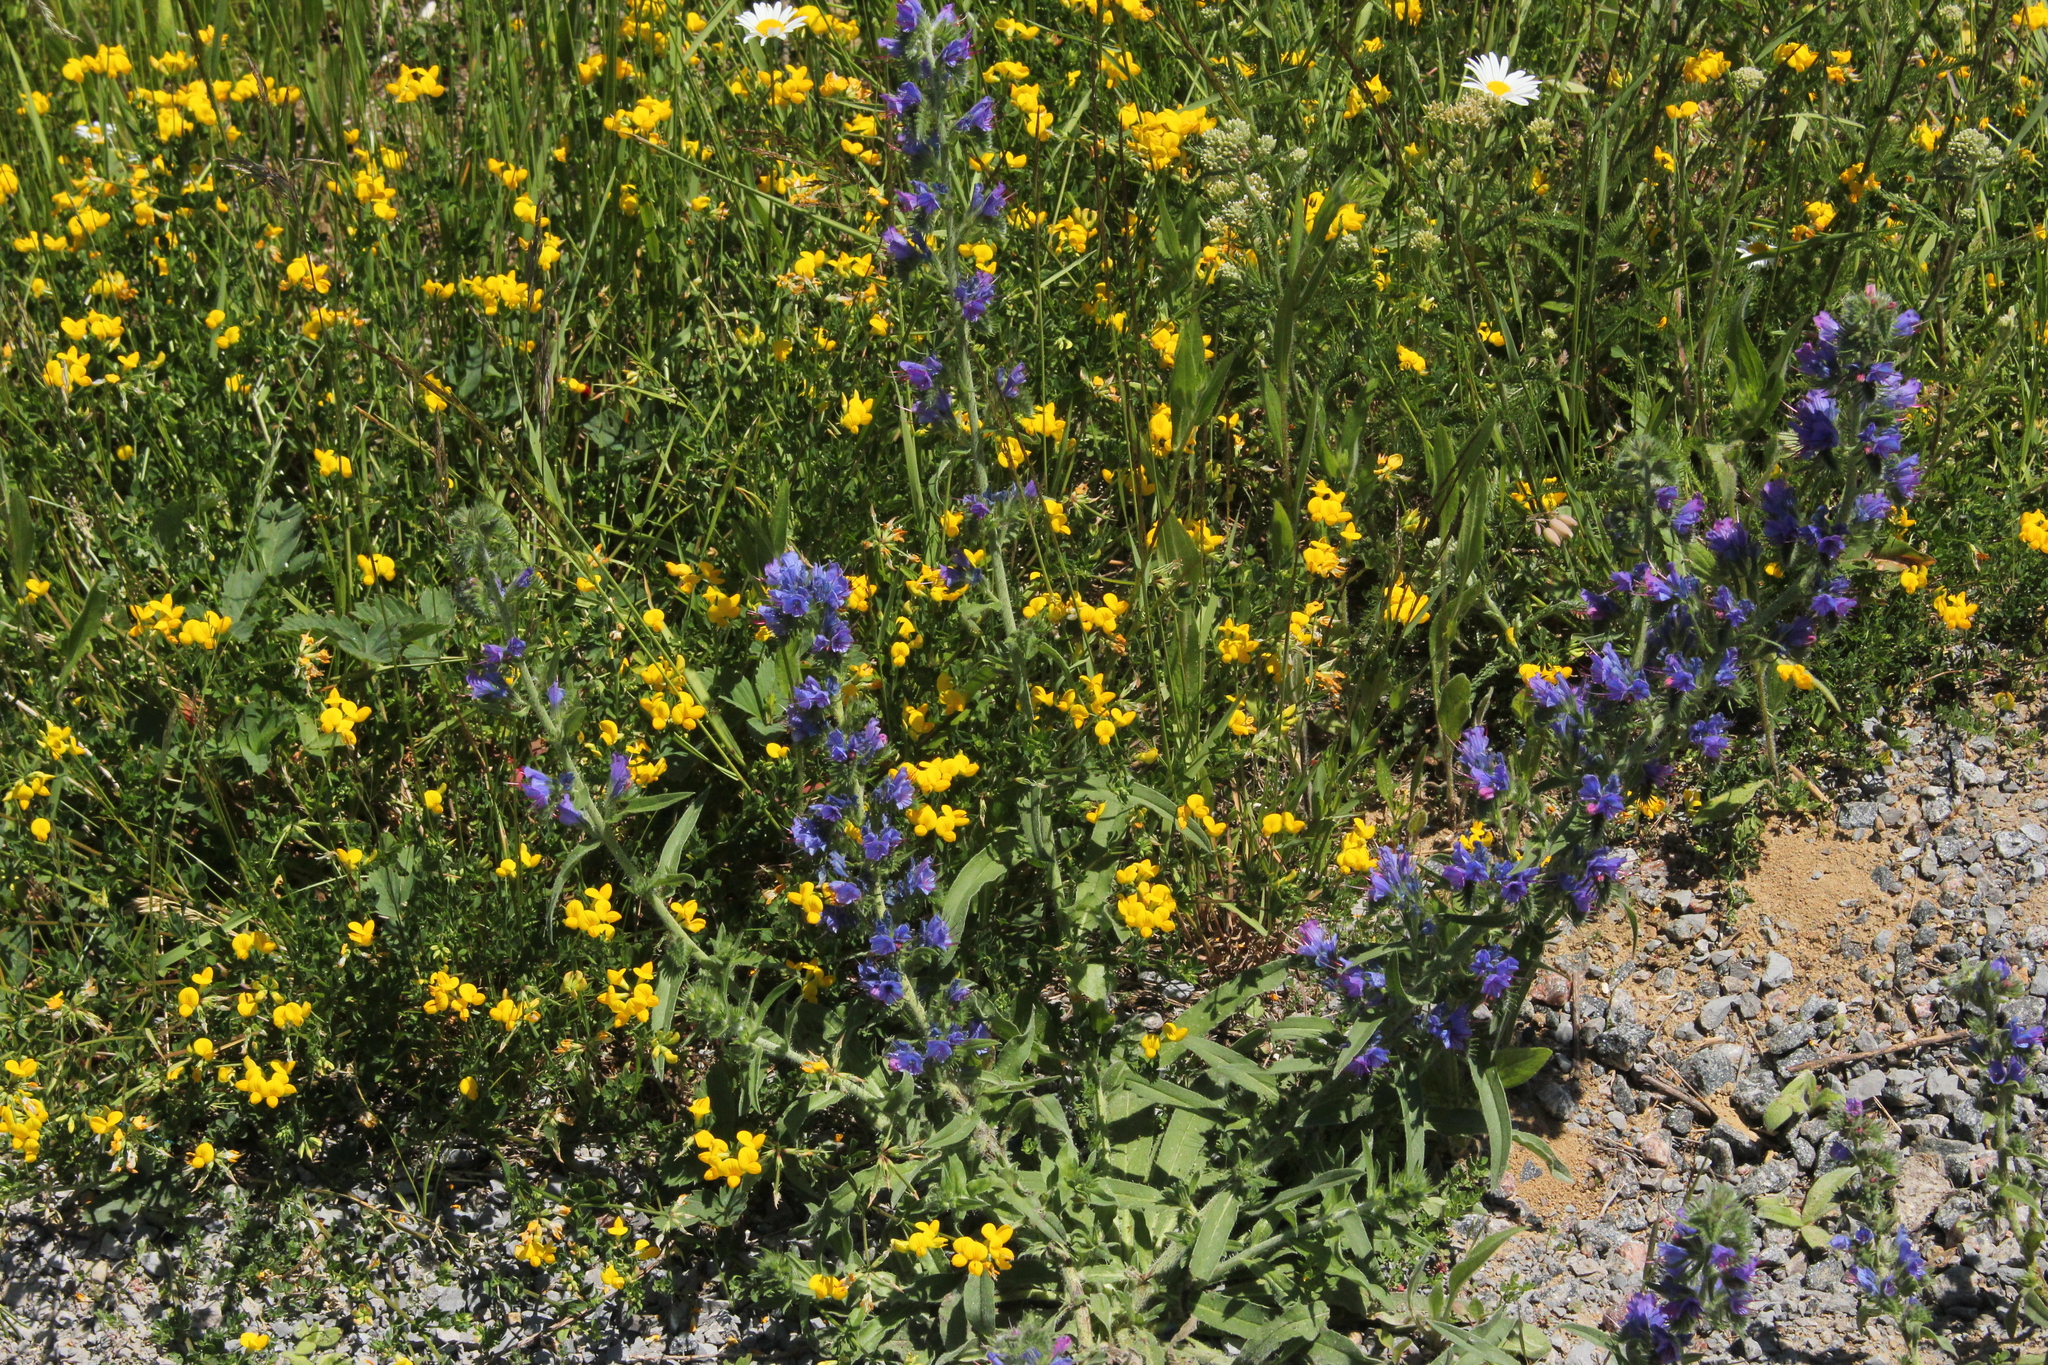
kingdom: Plantae
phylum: Tracheophyta
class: Magnoliopsida
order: Boraginales
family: Boraginaceae
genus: Echium
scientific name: Echium vulgare
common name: Common viper's bugloss
